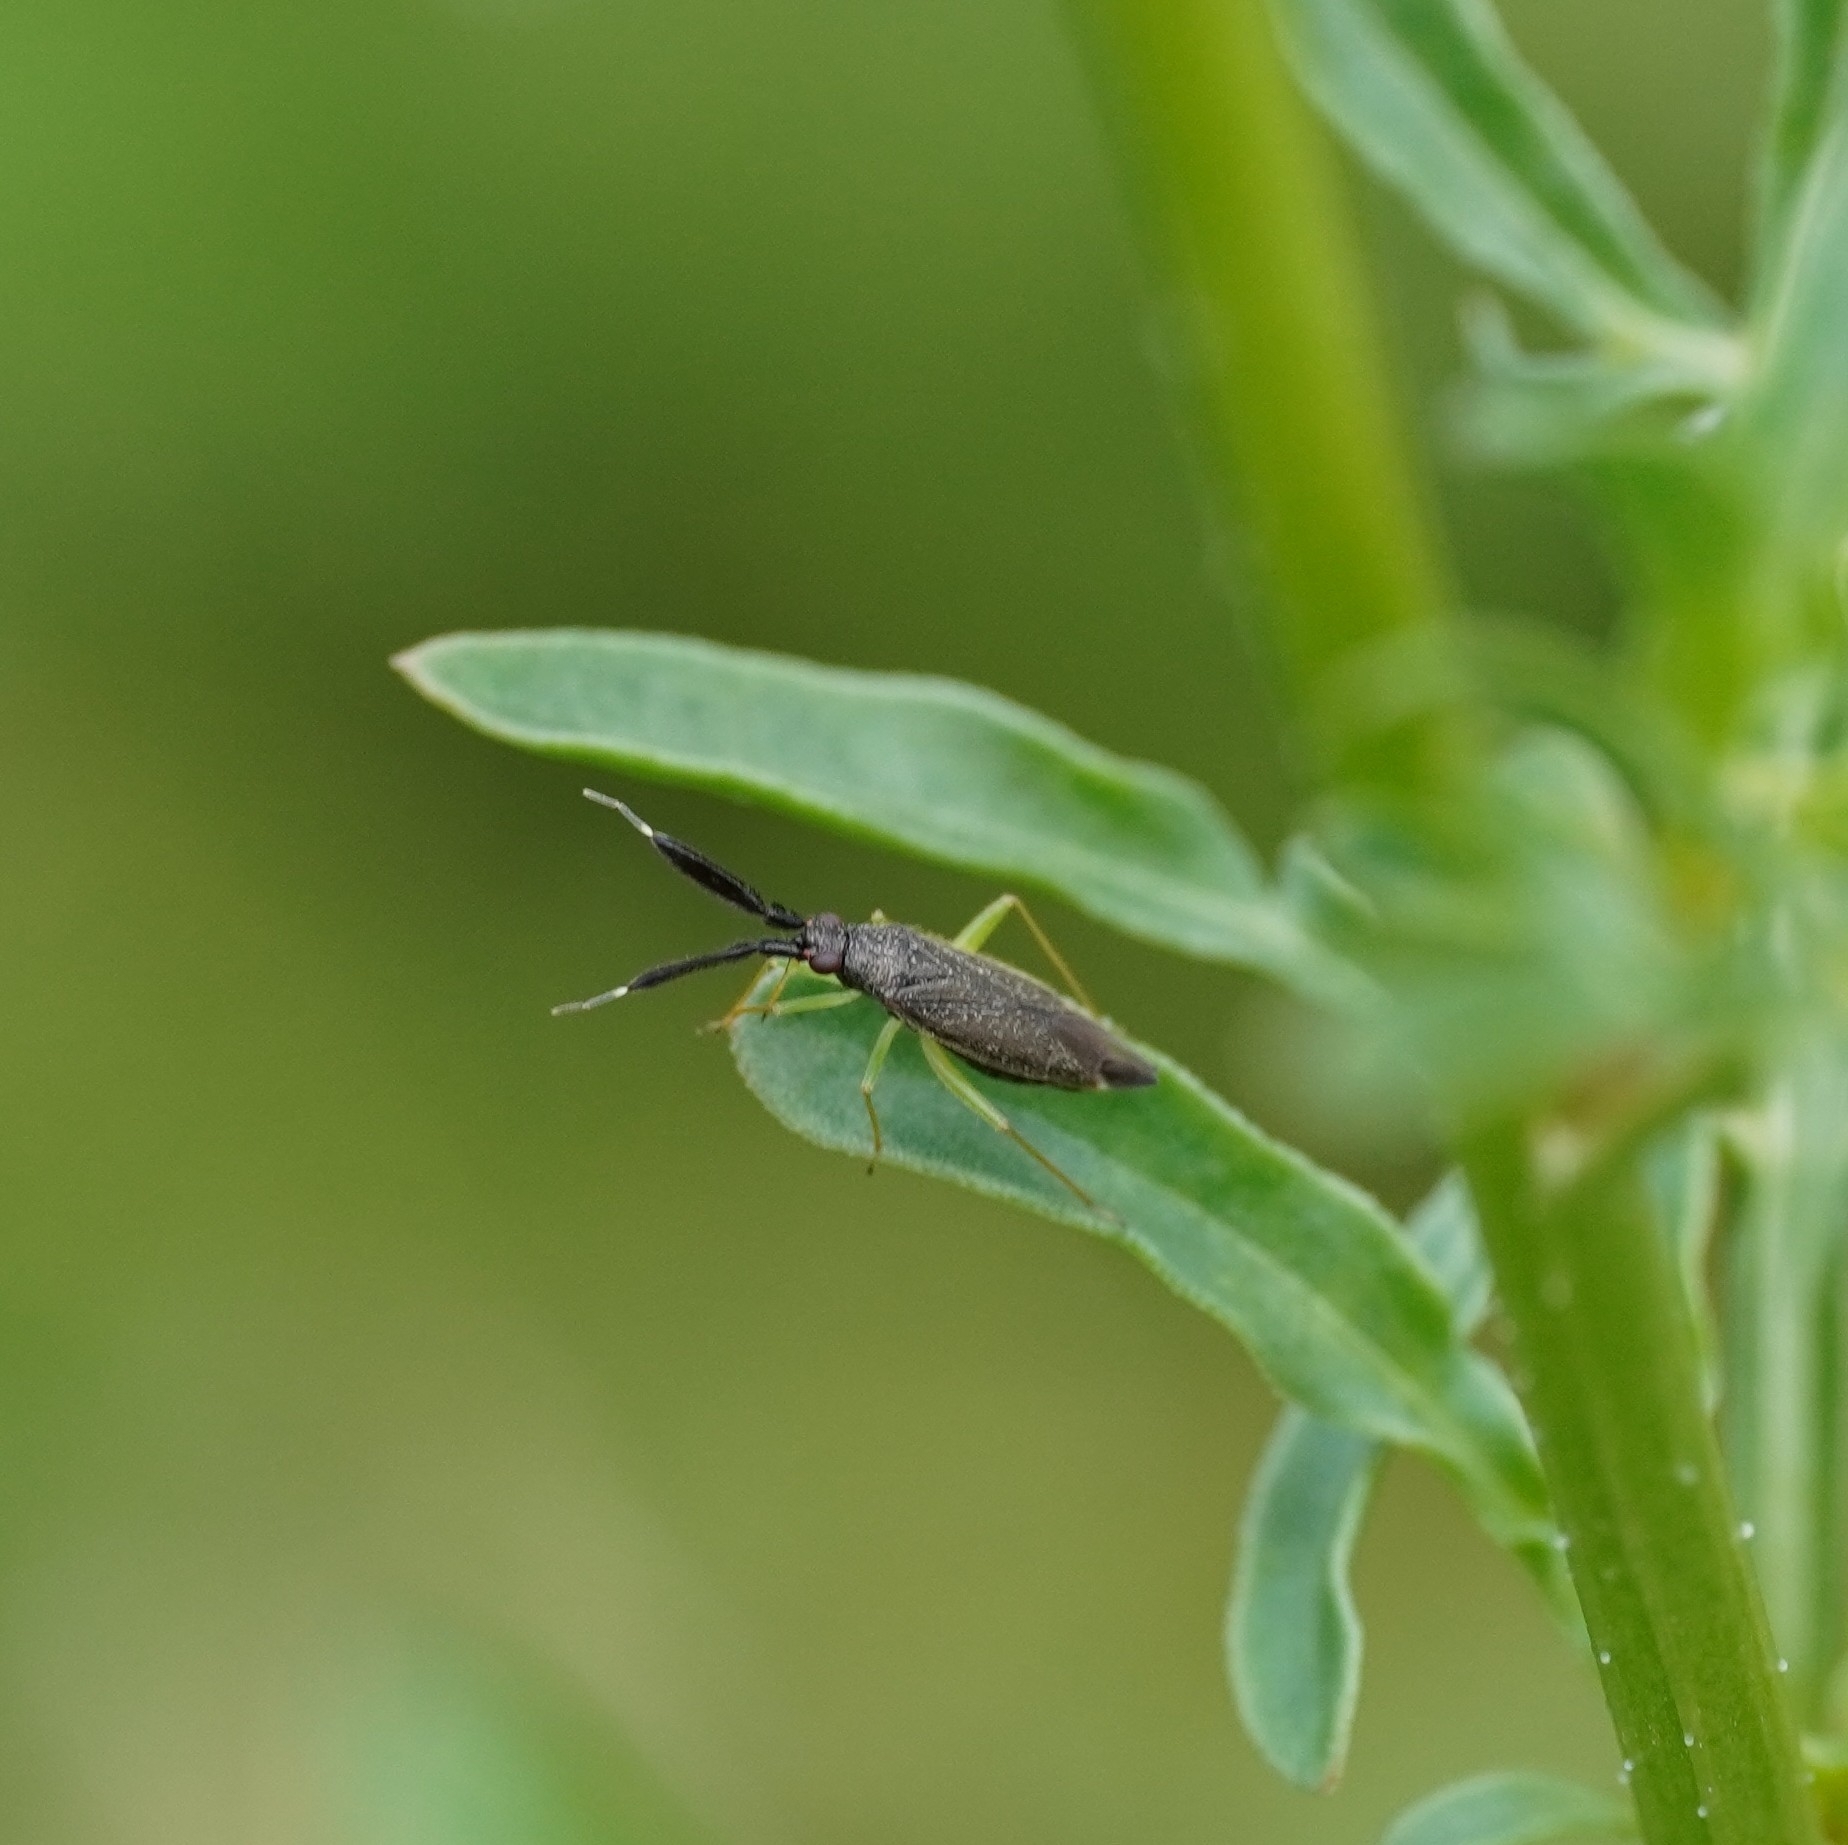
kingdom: Animalia
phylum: Arthropoda
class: Insecta
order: Hemiptera
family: Miridae
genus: Heterotoma
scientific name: Heterotoma planicornis
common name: Plant bug
